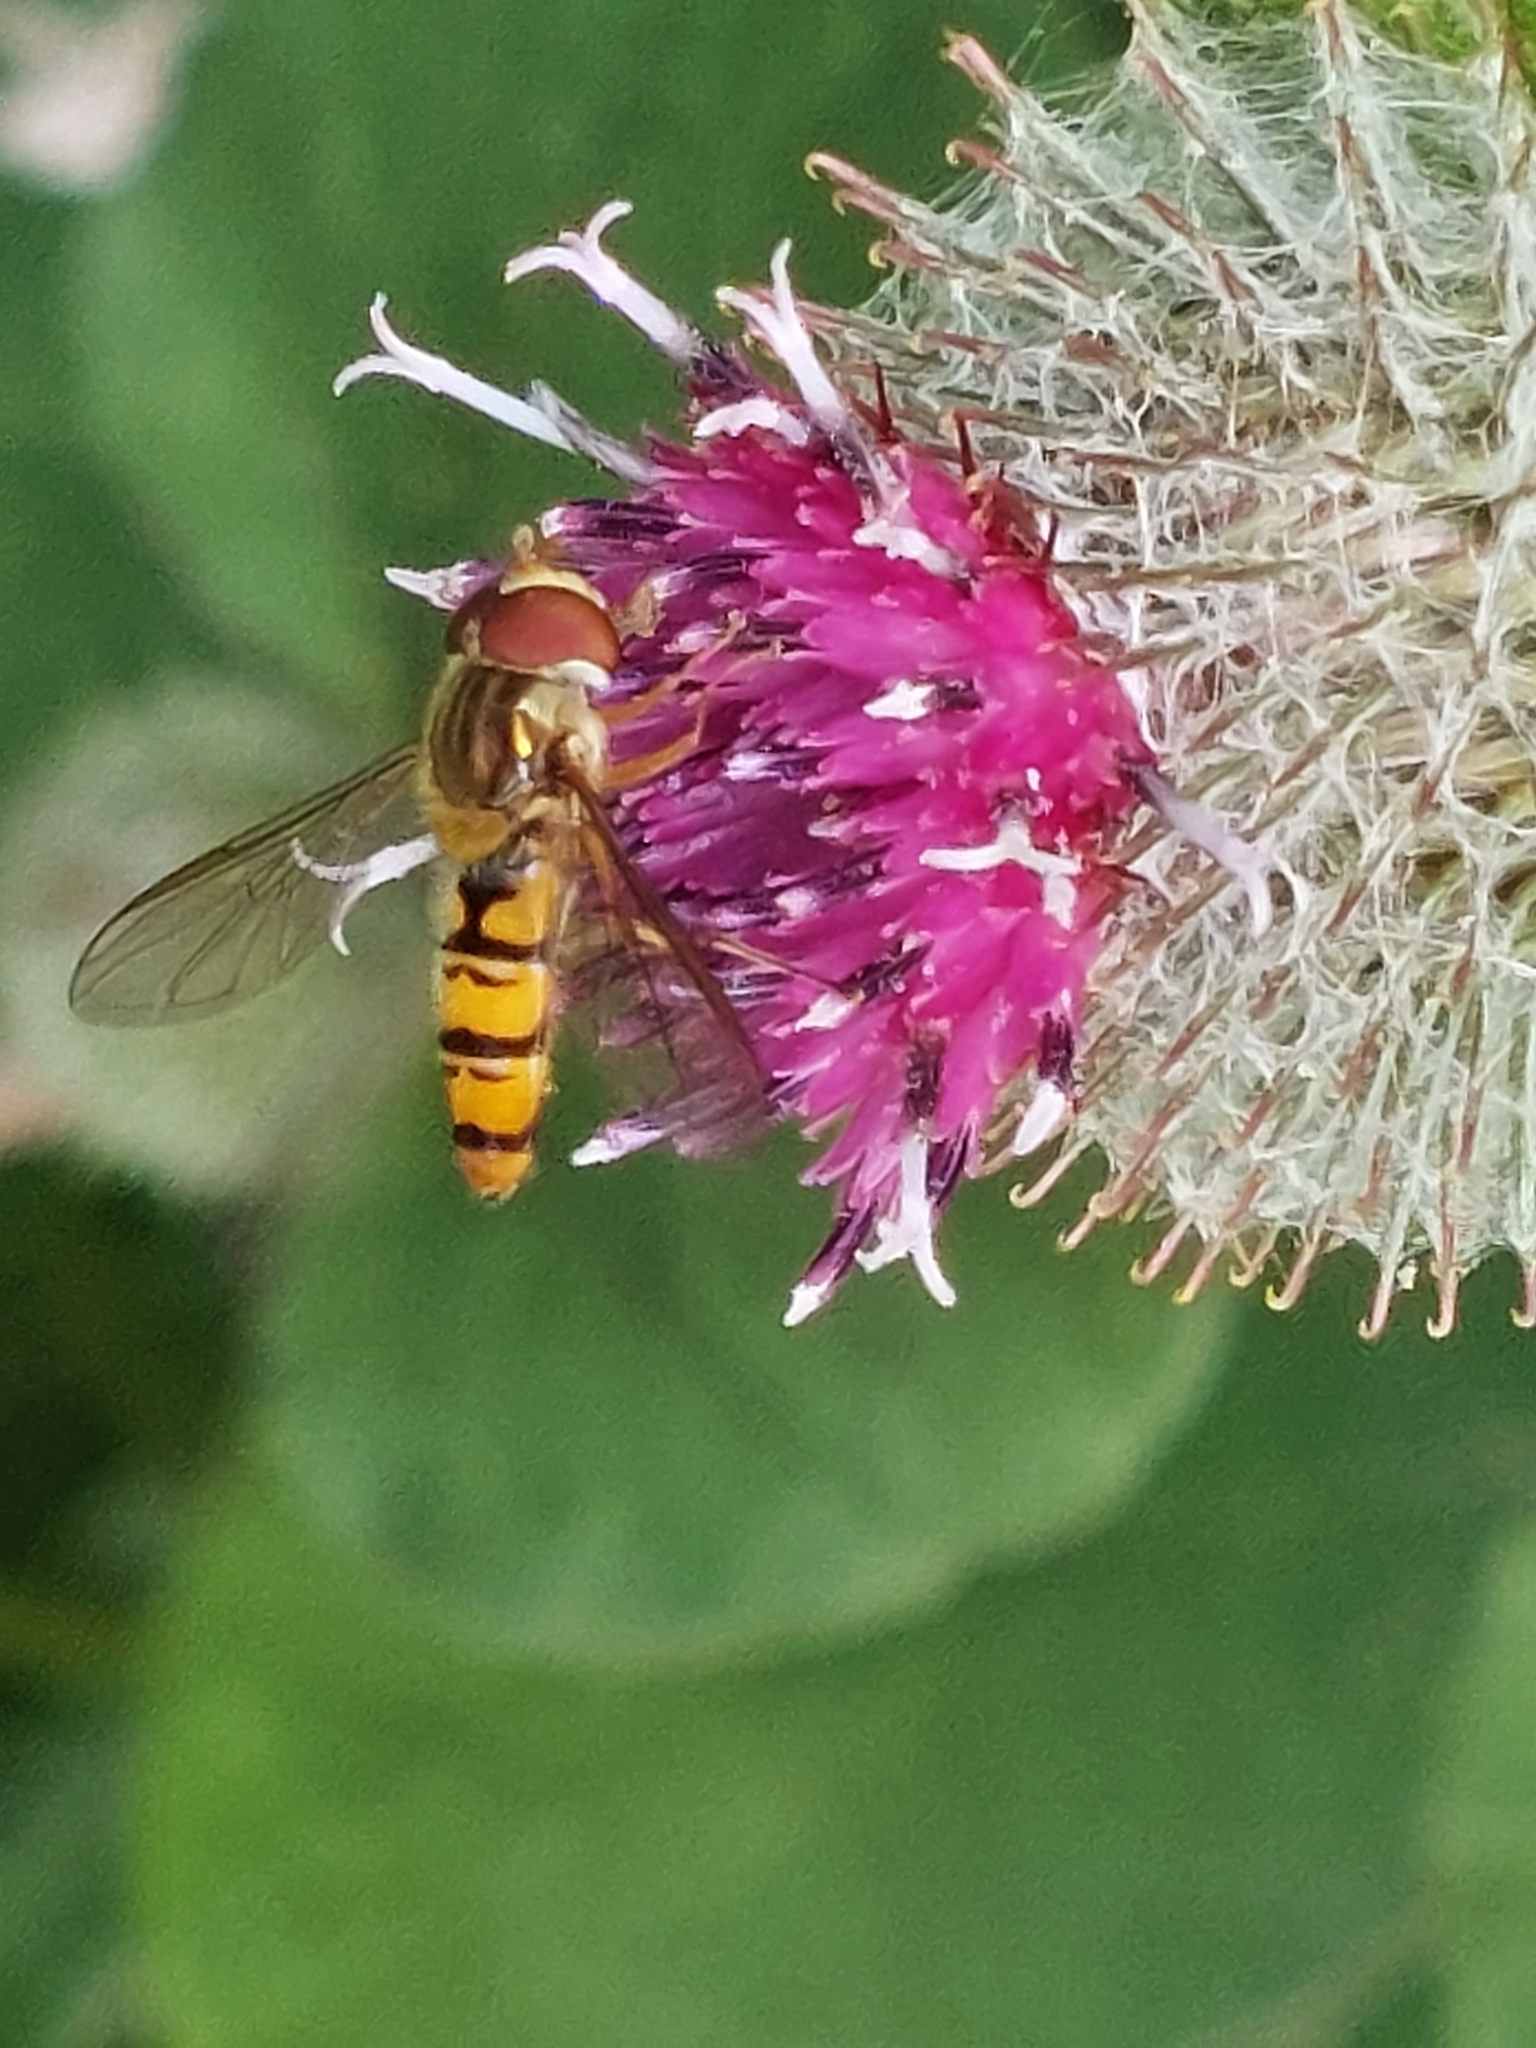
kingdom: Animalia
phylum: Arthropoda
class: Insecta
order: Diptera
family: Syrphidae
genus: Episyrphus
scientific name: Episyrphus balteatus
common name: Marmalade hoverfly
